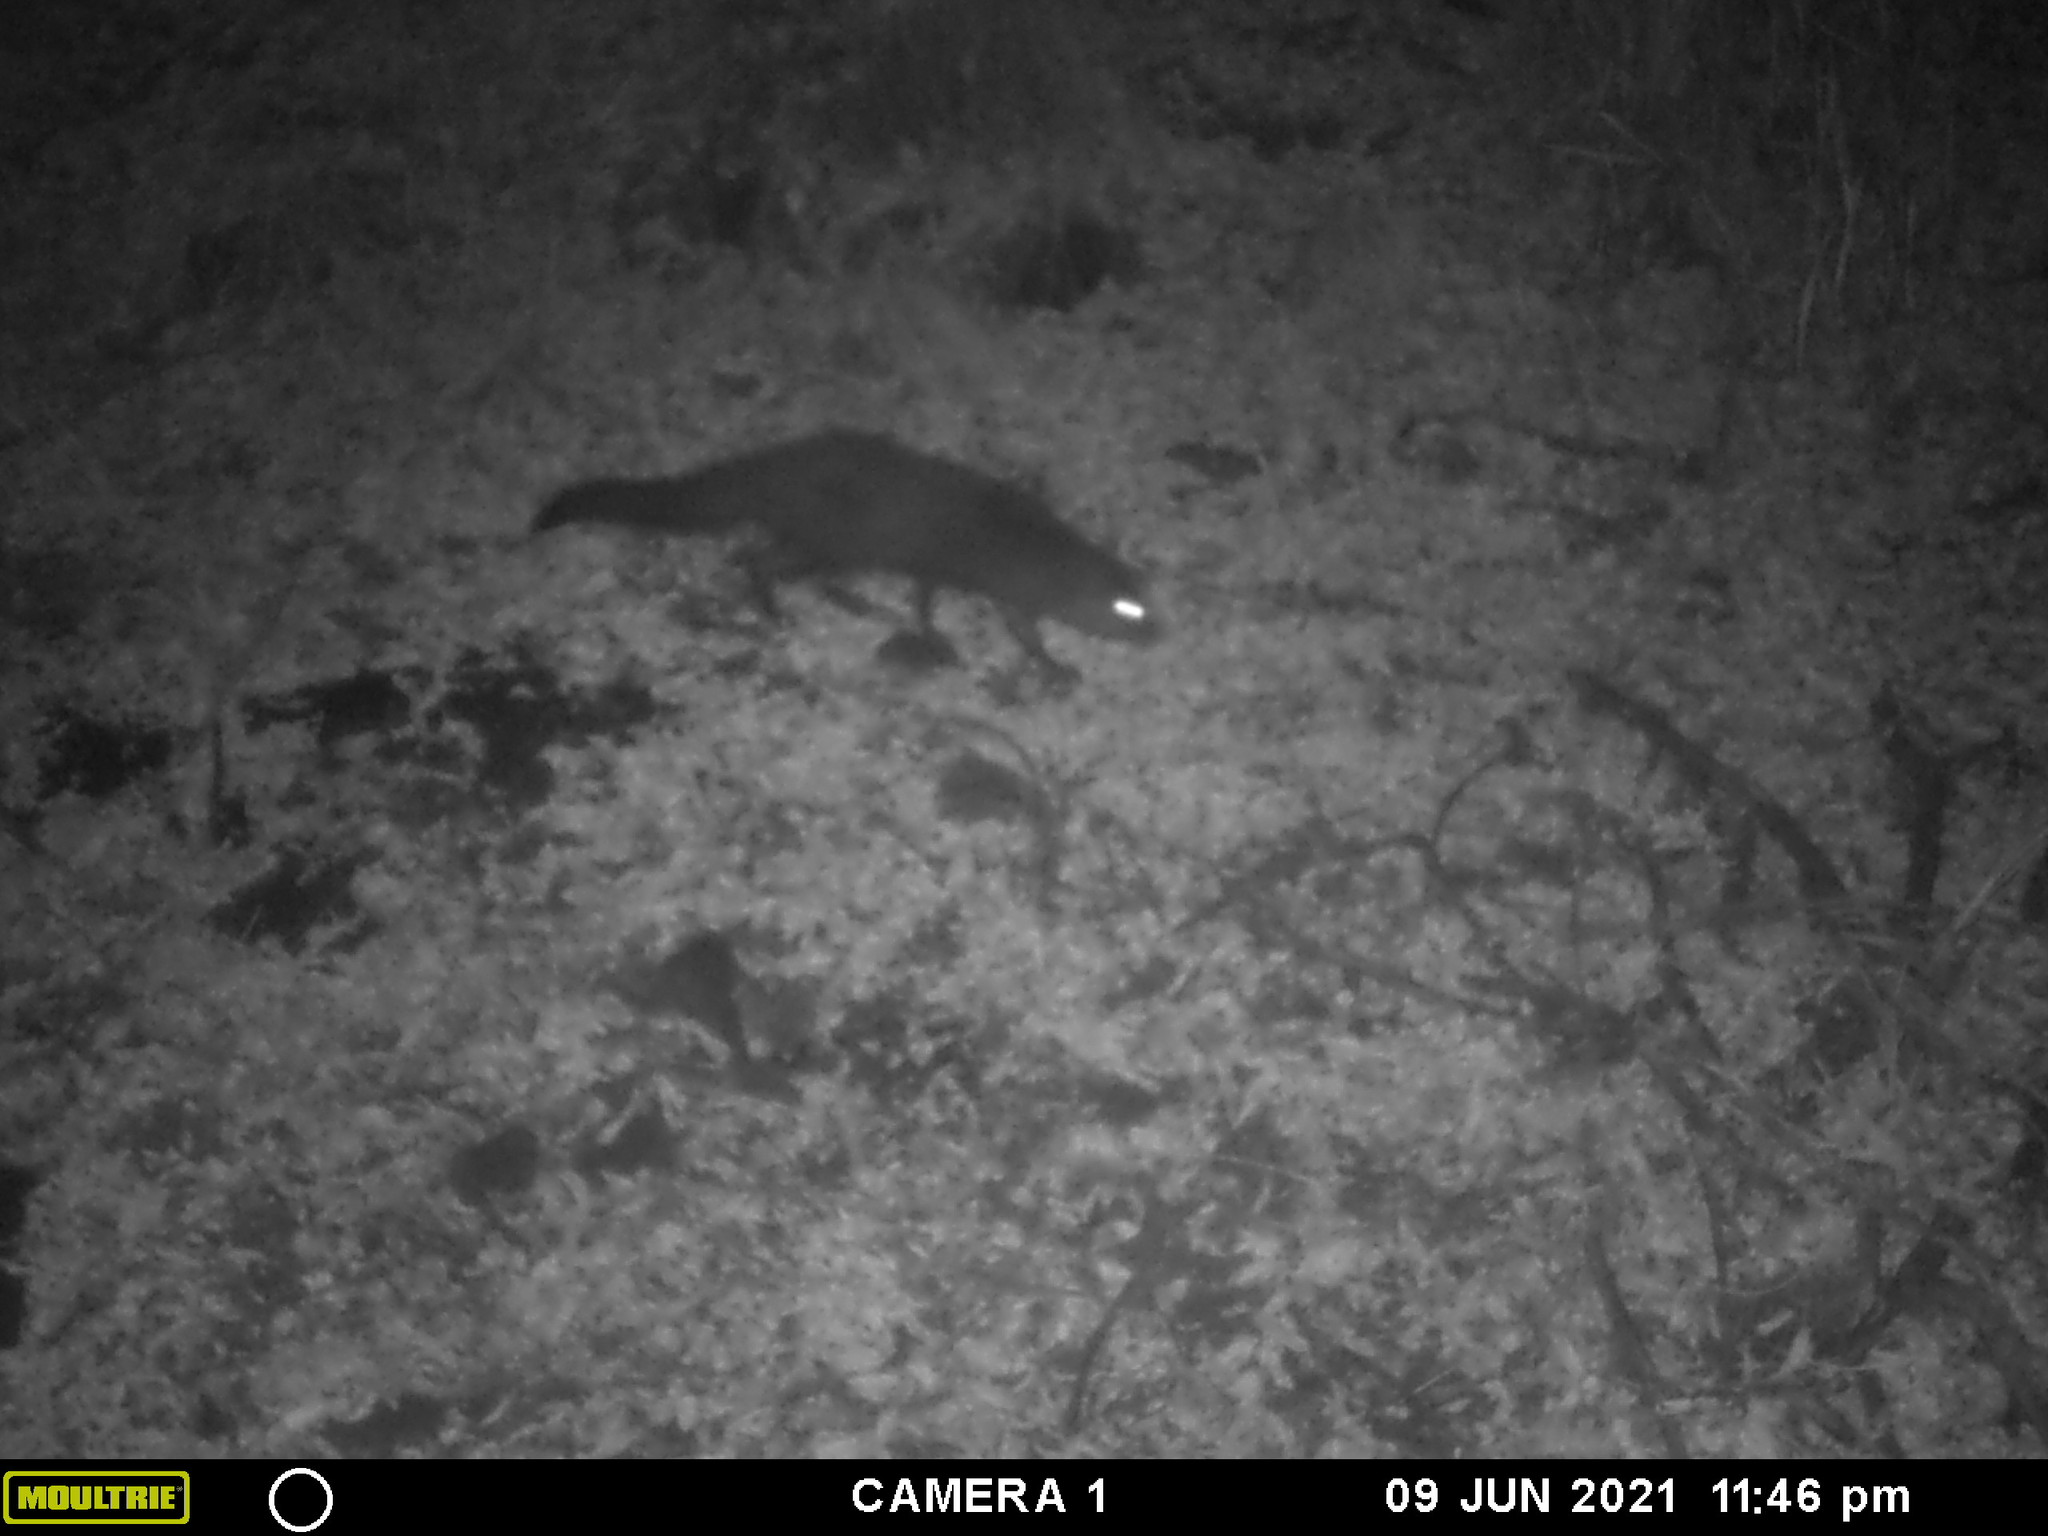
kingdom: Animalia
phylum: Chordata
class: Mammalia
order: Carnivora
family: Herpestidae
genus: Atilax
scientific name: Atilax paludinosus
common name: Marsh mongoose
